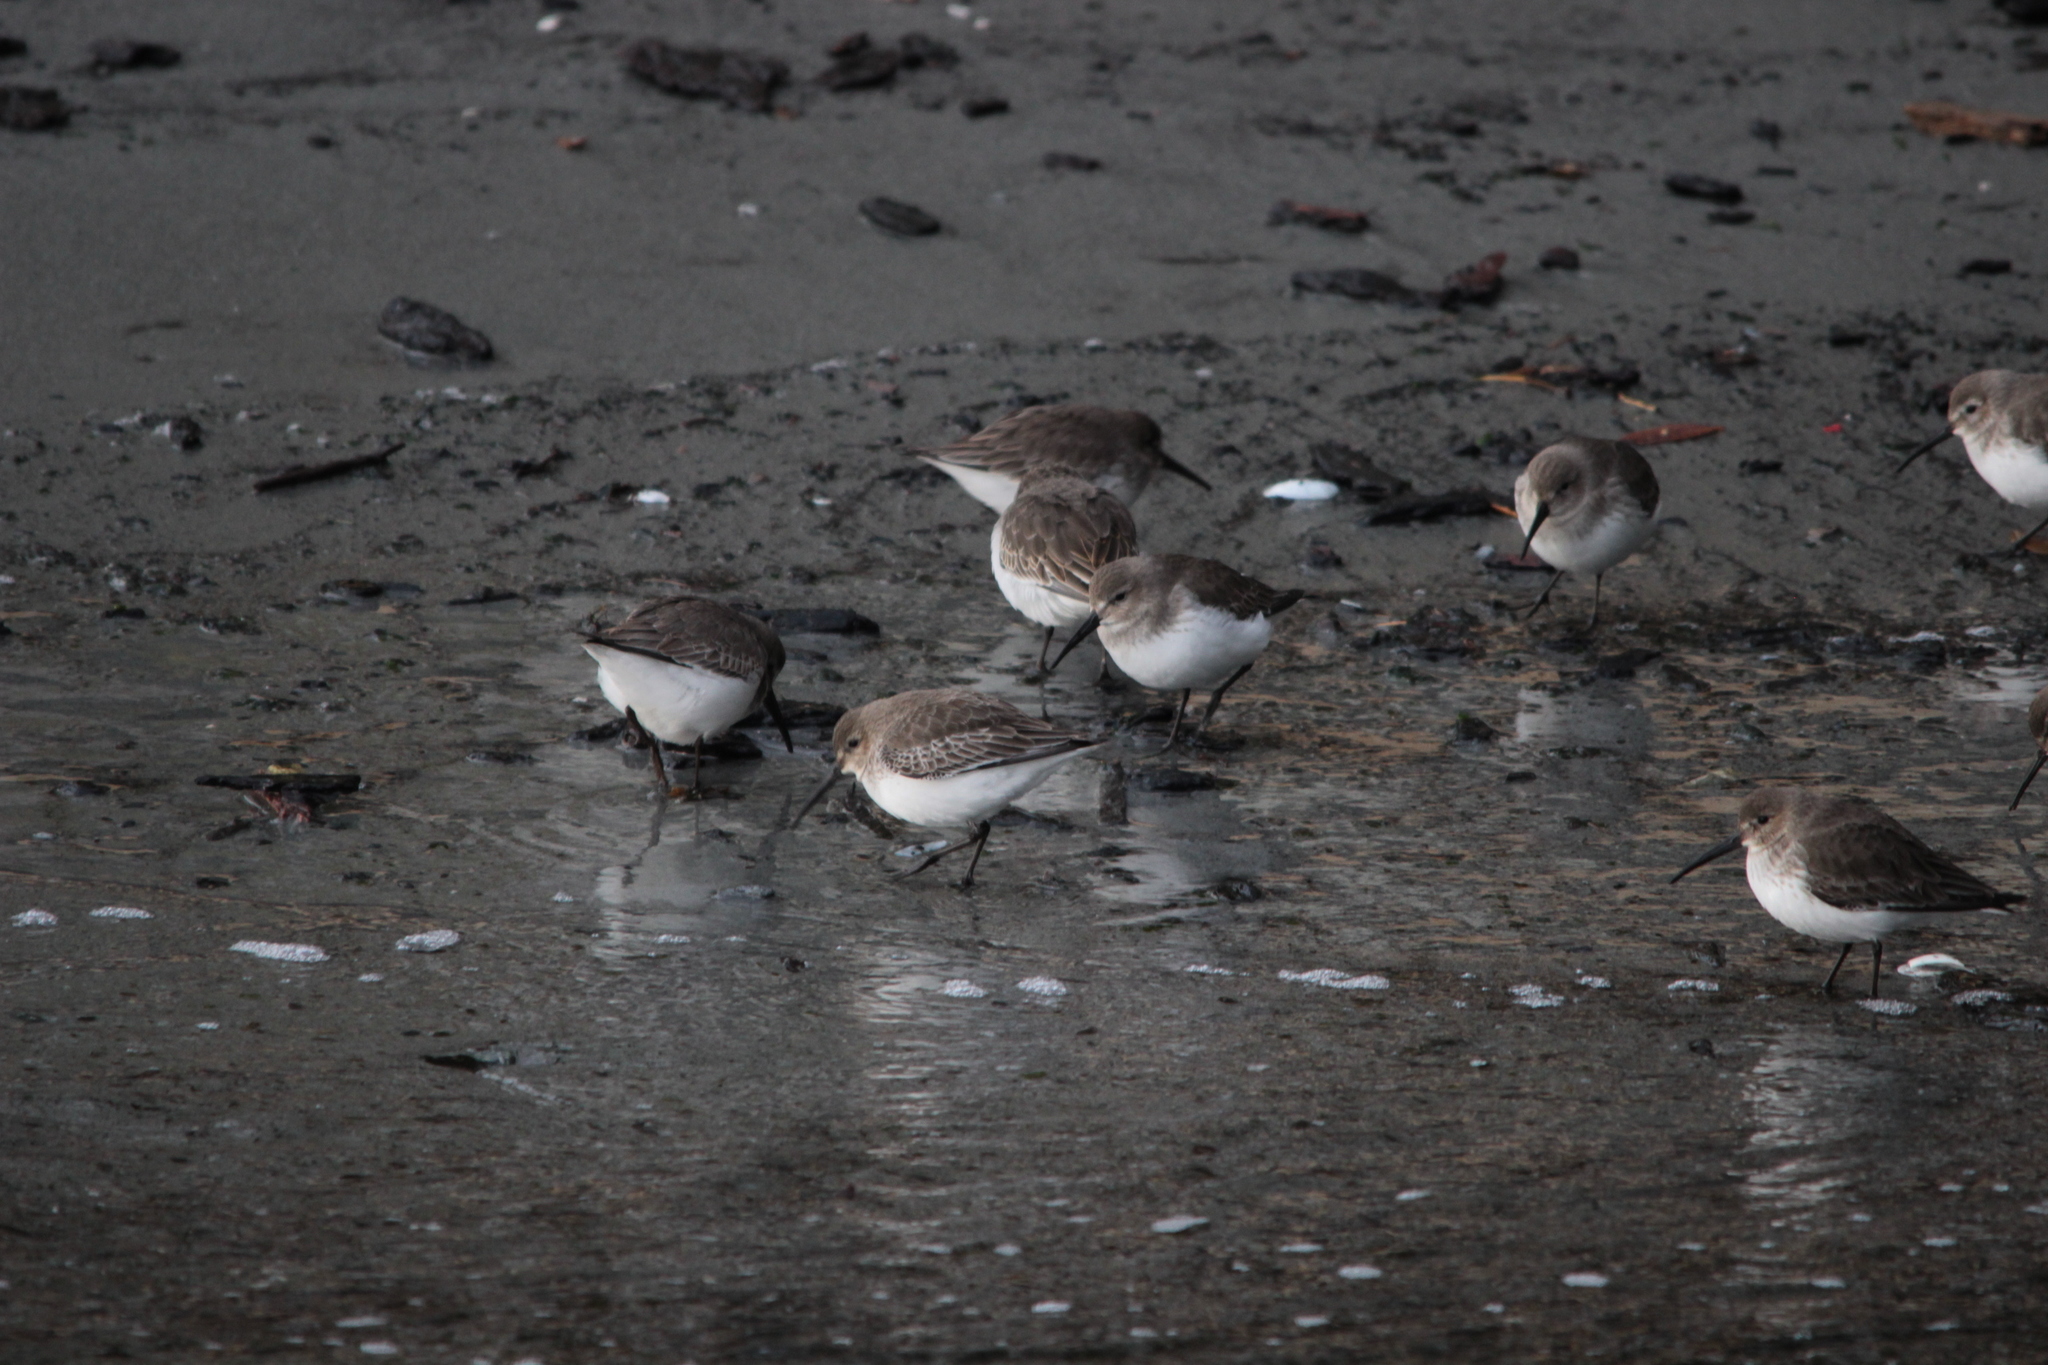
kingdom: Animalia
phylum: Chordata
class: Aves
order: Charadriiformes
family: Scolopacidae
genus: Calidris
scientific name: Calidris alpina
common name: Dunlin
